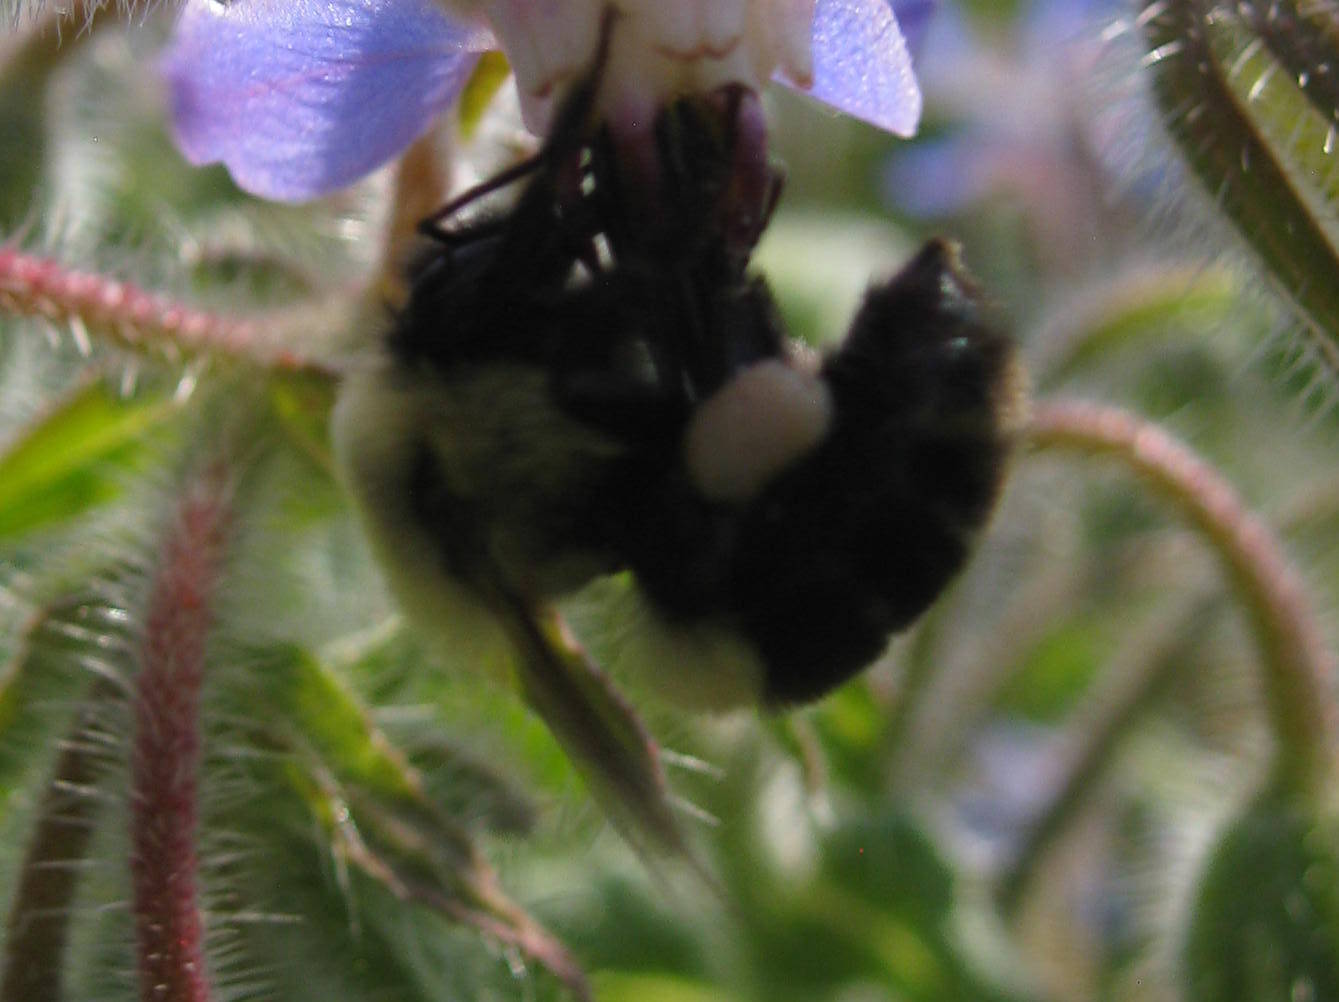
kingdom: Animalia
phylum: Arthropoda
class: Insecta
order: Hymenoptera
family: Apidae
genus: Bombus
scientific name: Bombus impatiens
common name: Common eastern bumble bee
